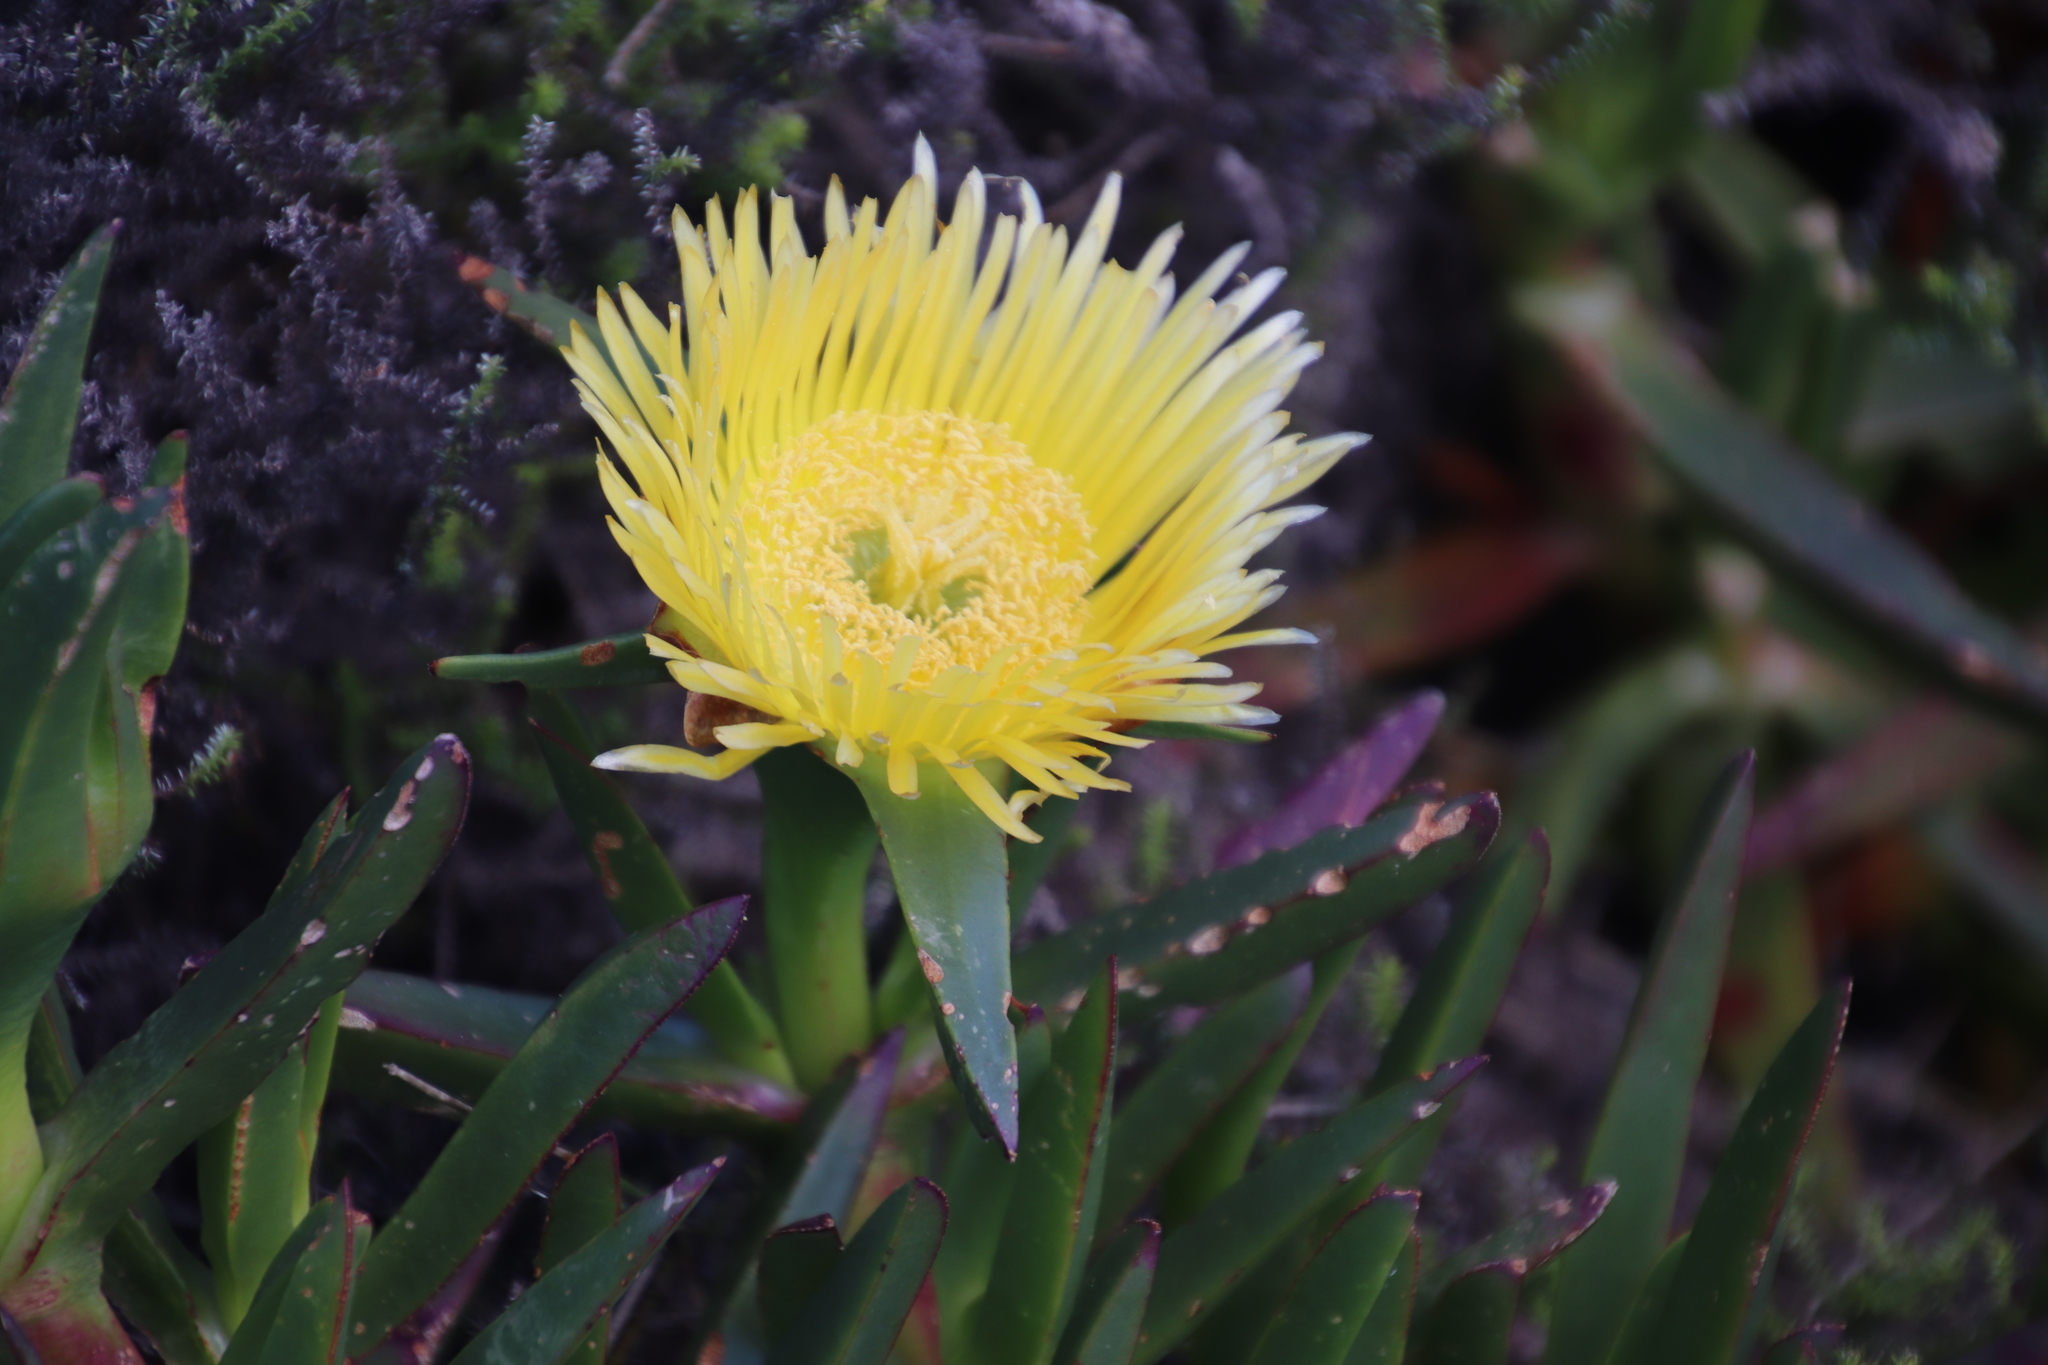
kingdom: Plantae
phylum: Tracheophyta
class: Magnoliopsida
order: Caryophyllales
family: Aizoaceae
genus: Carpobrotus
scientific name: Carpobrotus edulis
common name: Hottentot-fig
